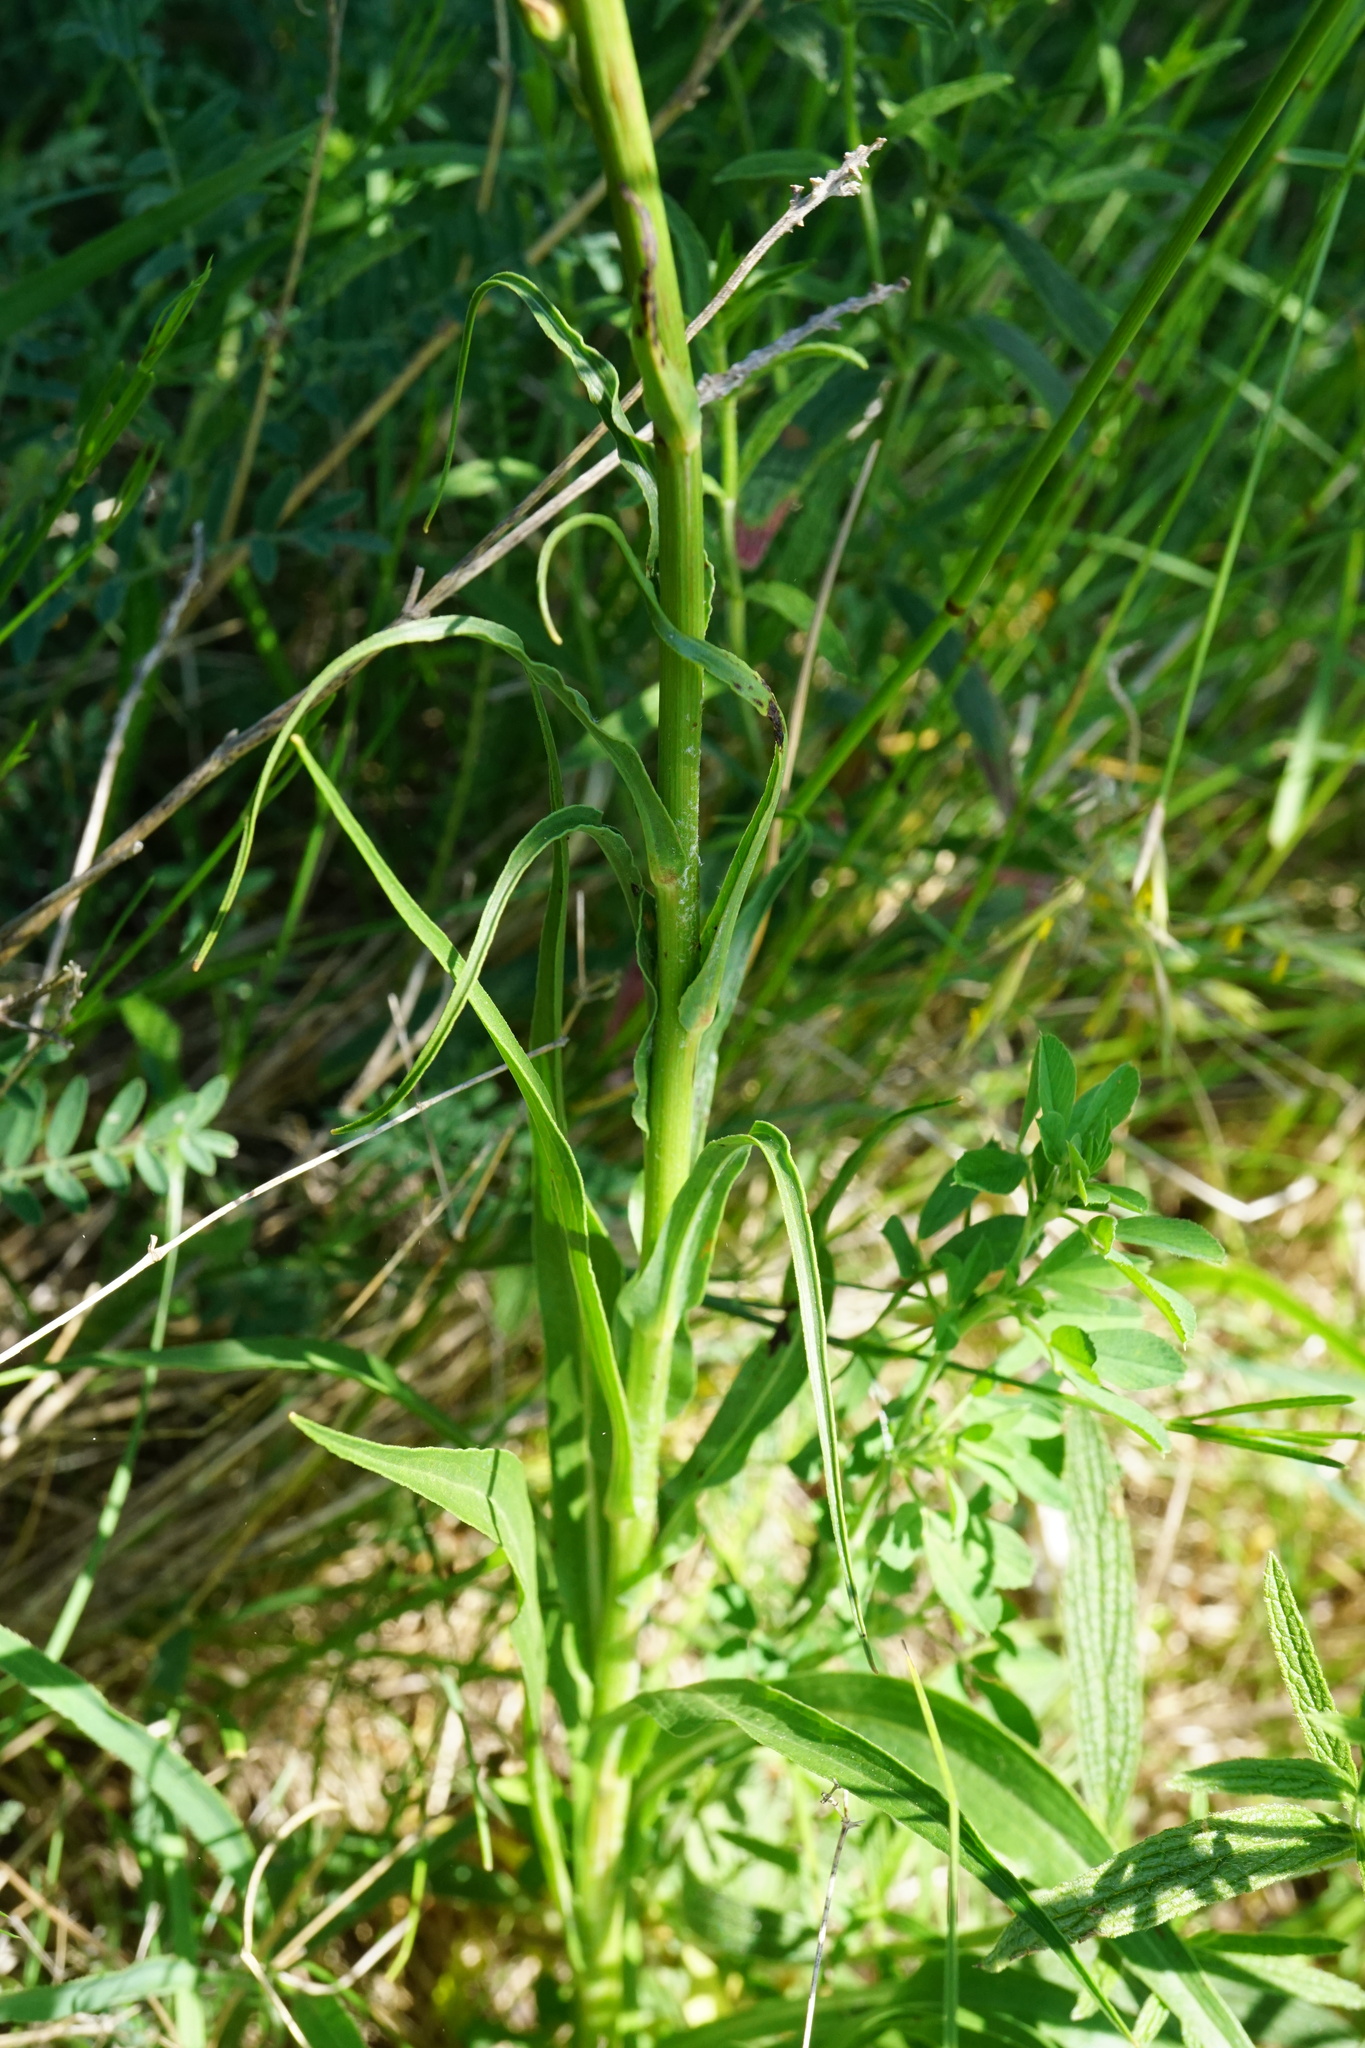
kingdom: Plantae
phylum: Tracheophyta
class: Magnoliopsida
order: Asterales
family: Asteraceae
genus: Pseudopodospermum
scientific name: Pseudopodospermum hispanicum
